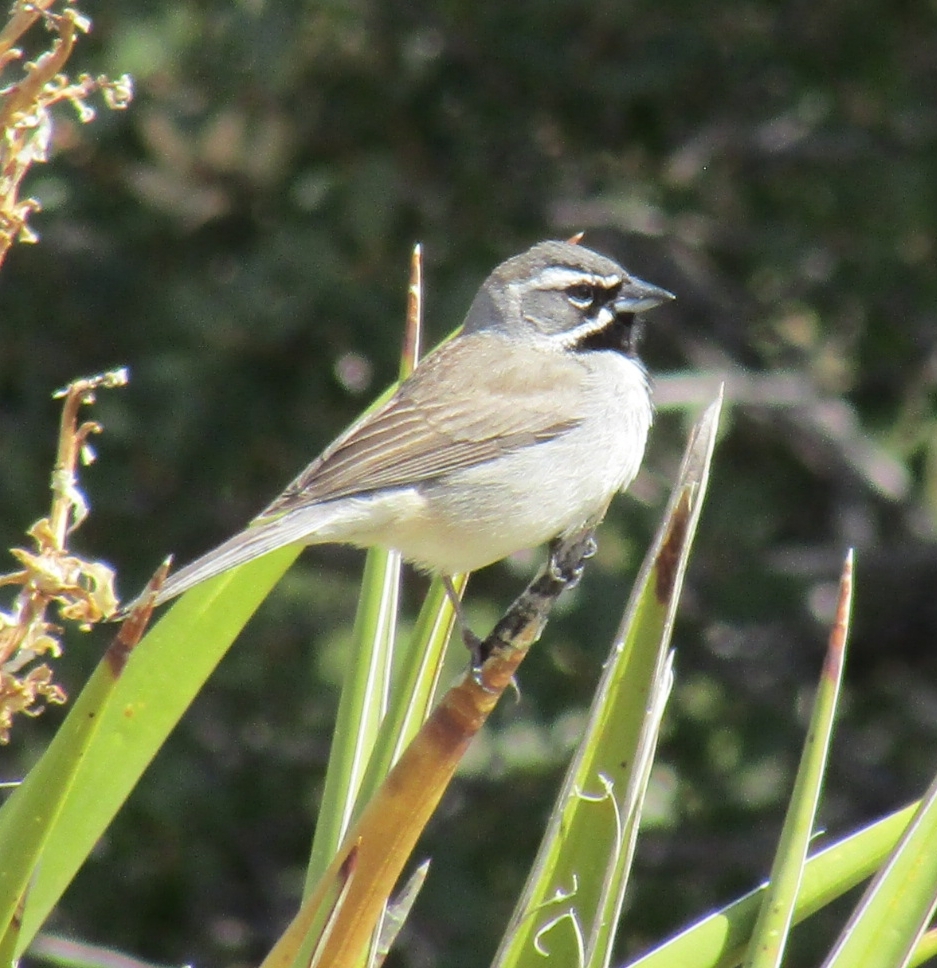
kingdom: Animalia
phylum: Chordata
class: Aves
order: Passeriformes
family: Passerellidae
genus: Amphispiza
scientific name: Amphispiza bilineata
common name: Black-throated sparrow
